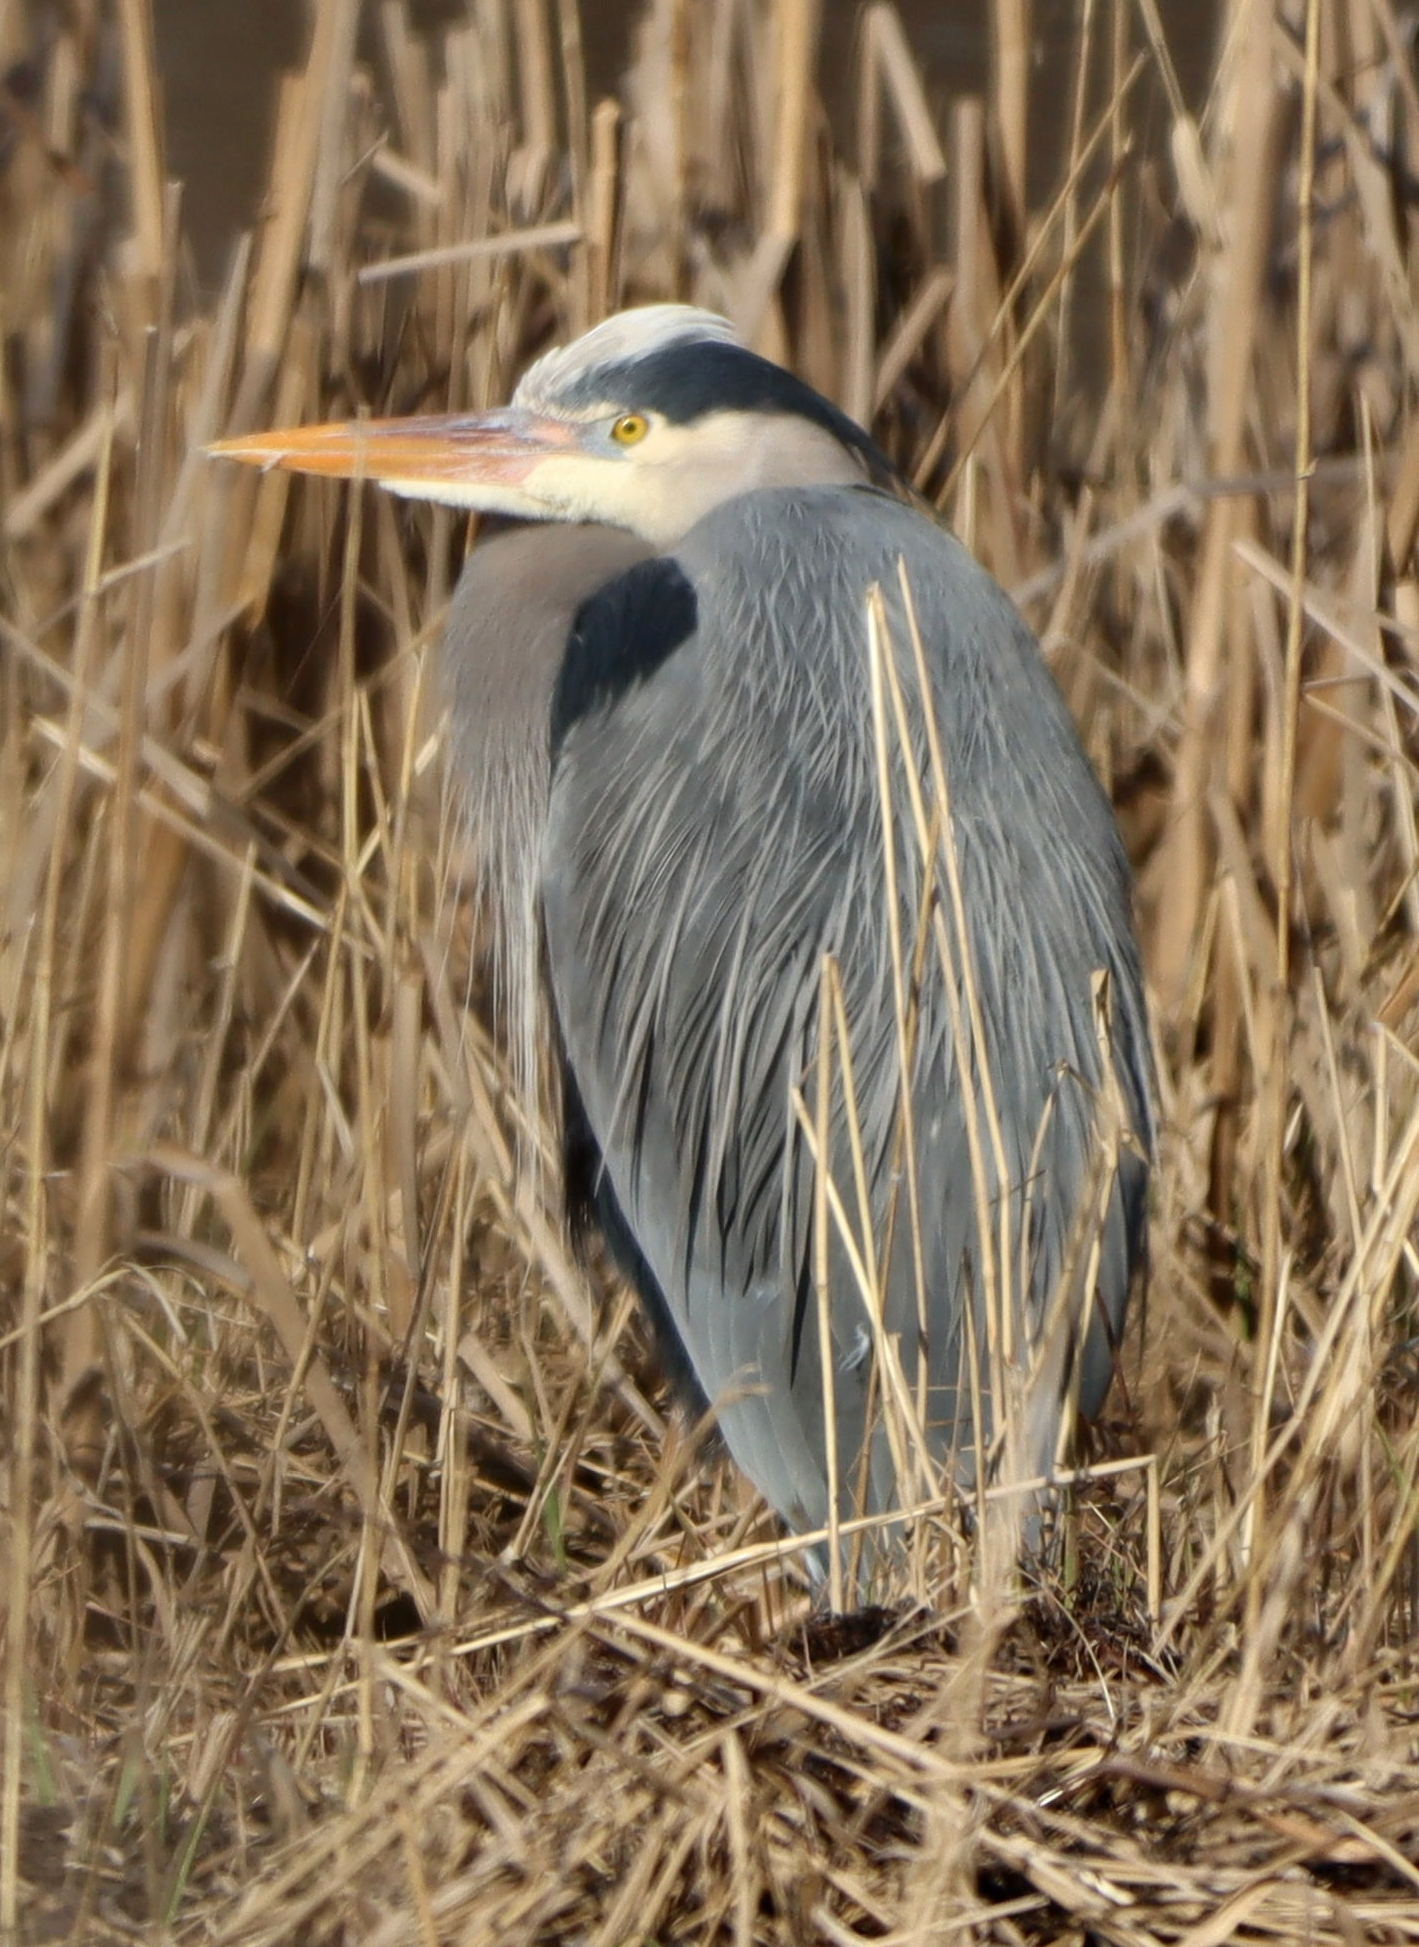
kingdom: Animalia
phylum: Chordata
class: Aves
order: Pelecaniformes
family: Ardeidae
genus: Ardea
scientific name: Ardea herodias
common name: Great blue heron
